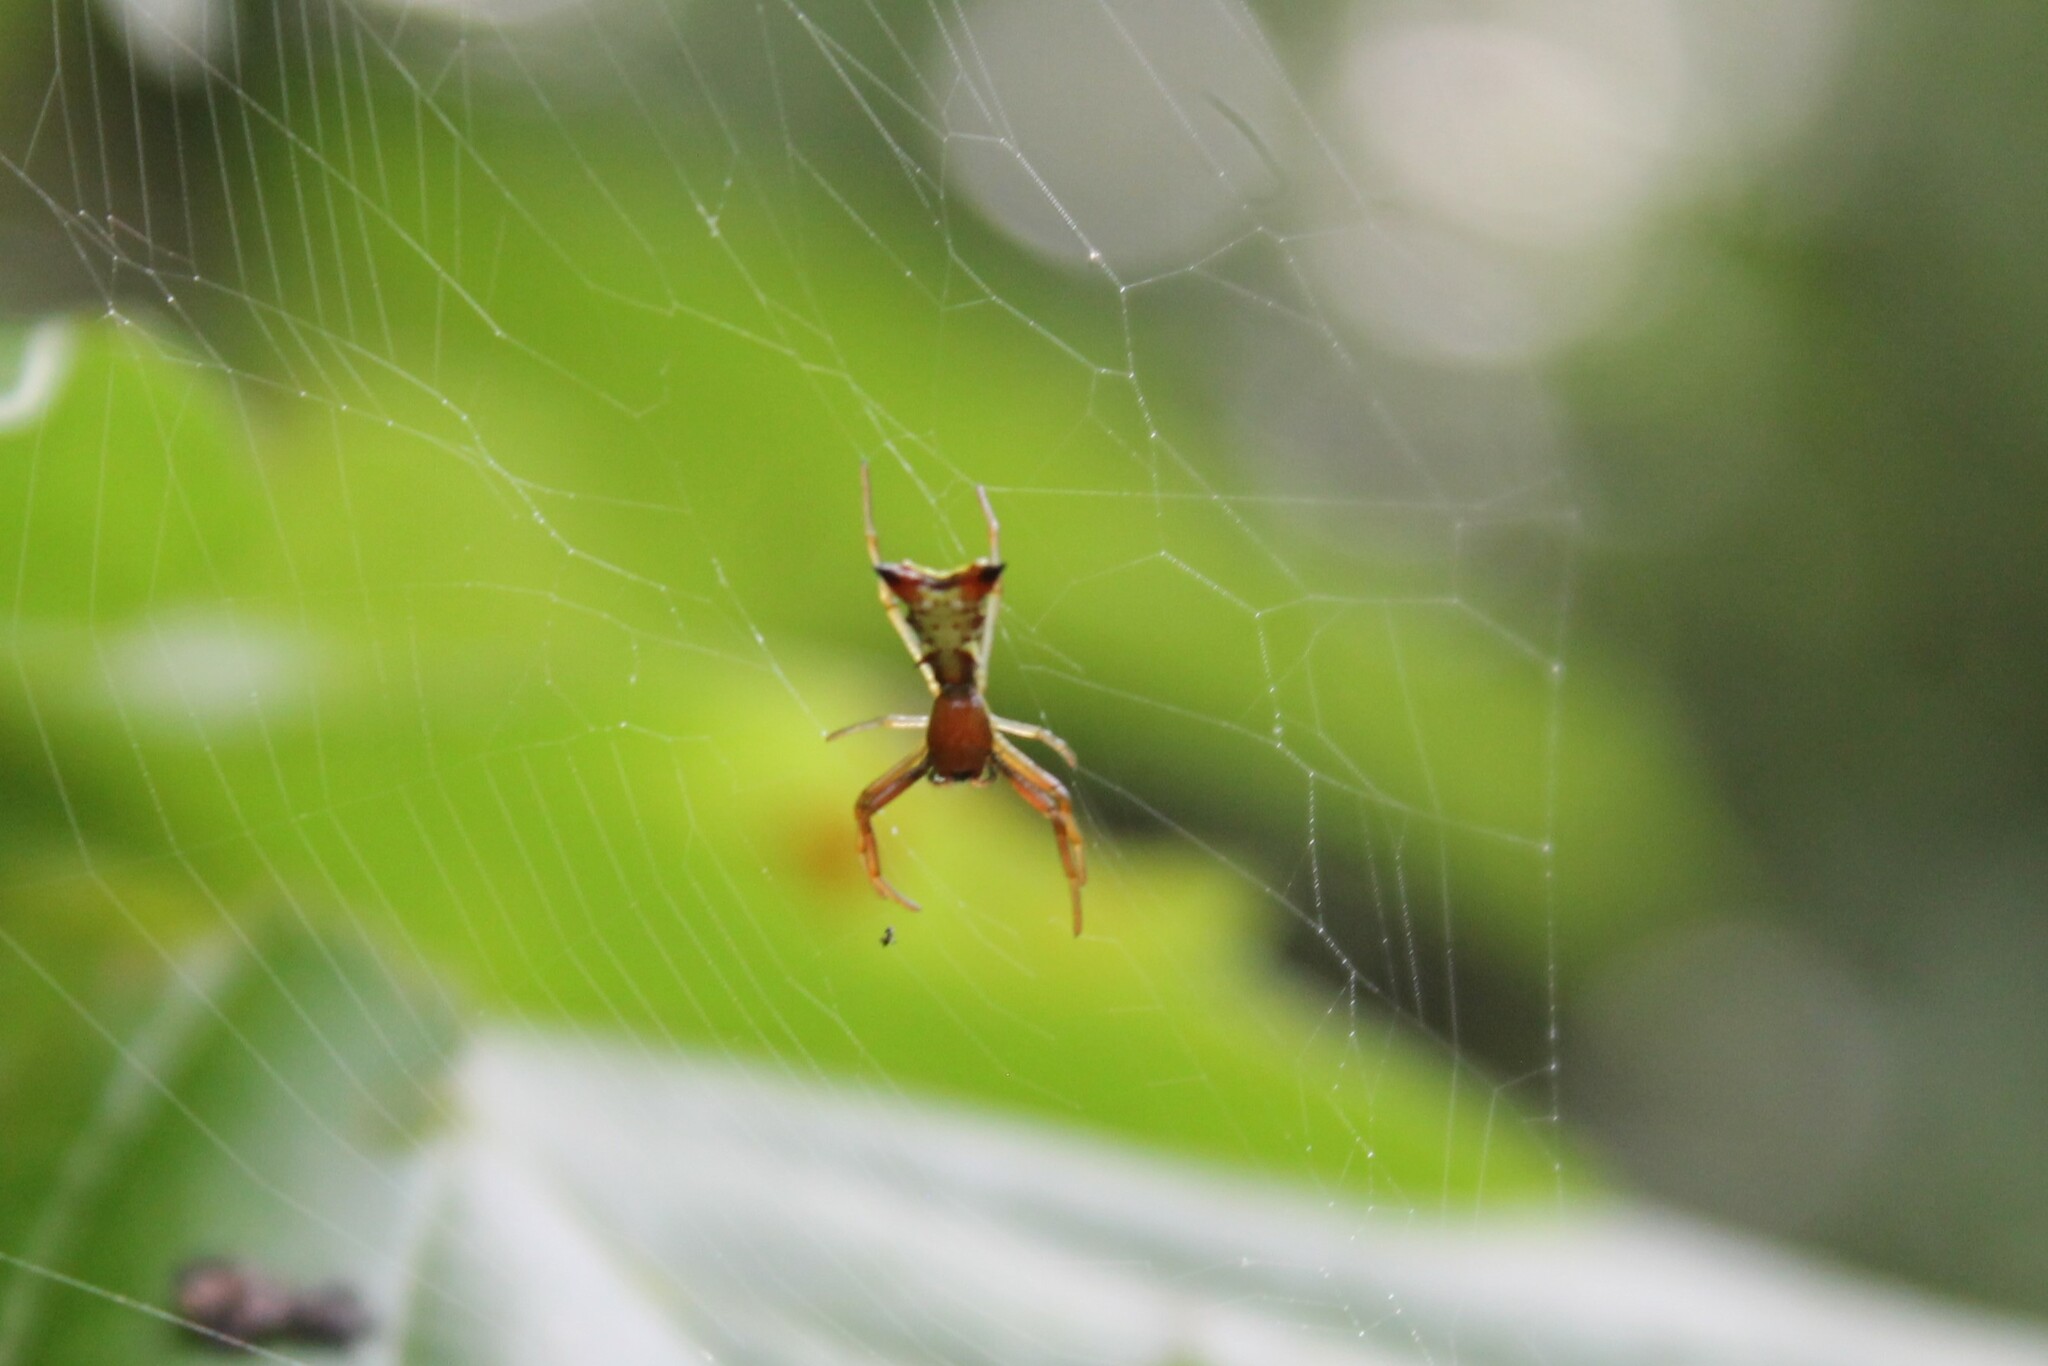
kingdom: Animalia
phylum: Arthropoda
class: Arachnida
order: Araneae
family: Araneidae
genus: Micrathena
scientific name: Micrathena sagittata
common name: Orb weavers
